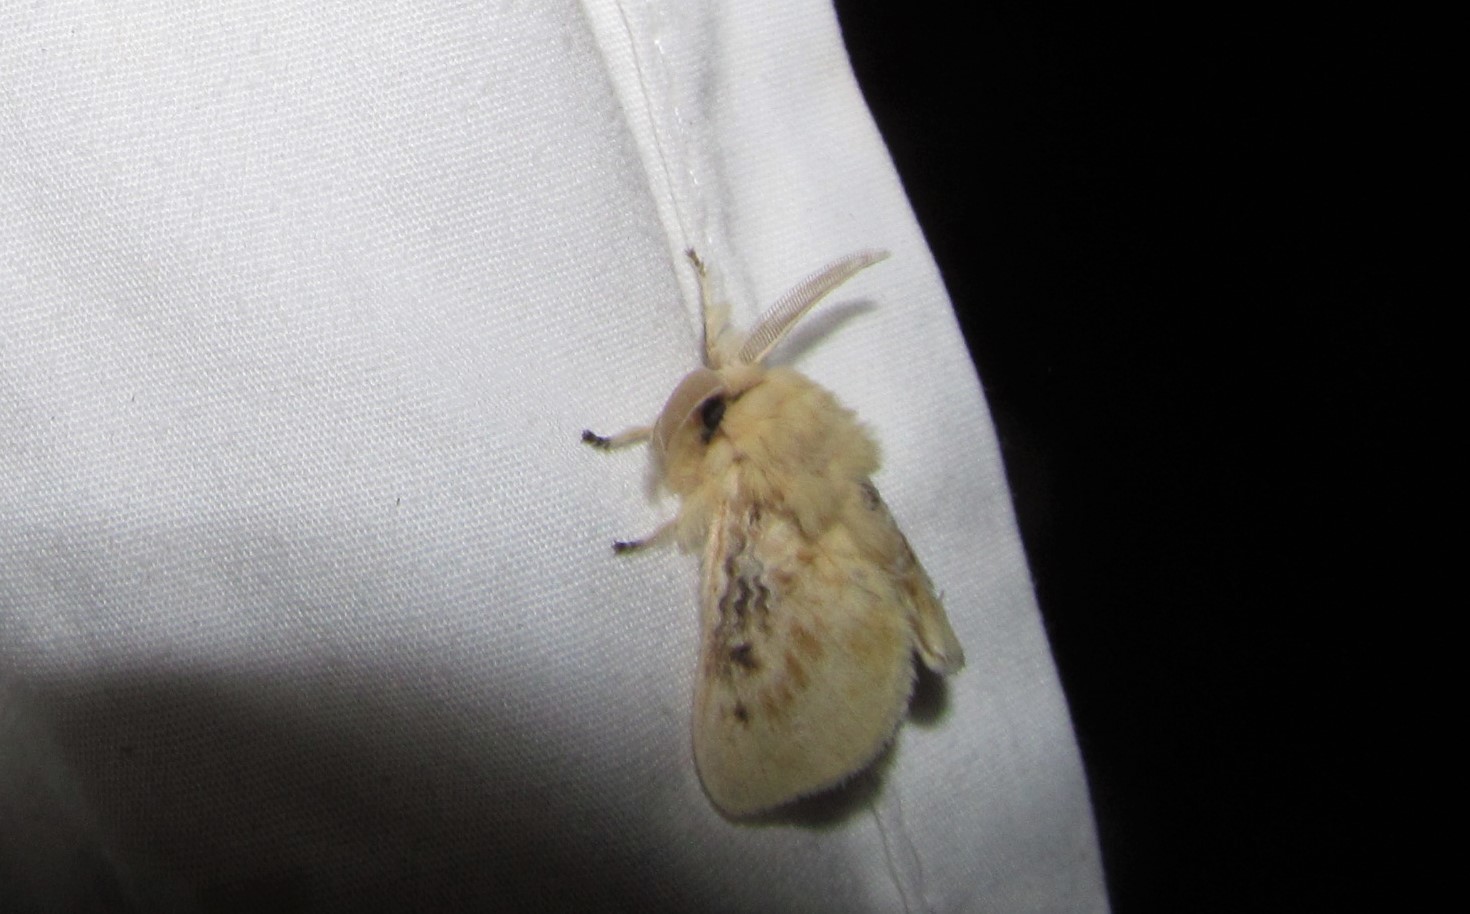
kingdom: Animalia
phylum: Arthropoda
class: Insecta
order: Lepidoptera
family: Megalopygidae
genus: Megalopyge
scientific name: Megalopyge crispata
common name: Black-waved flannel moth
